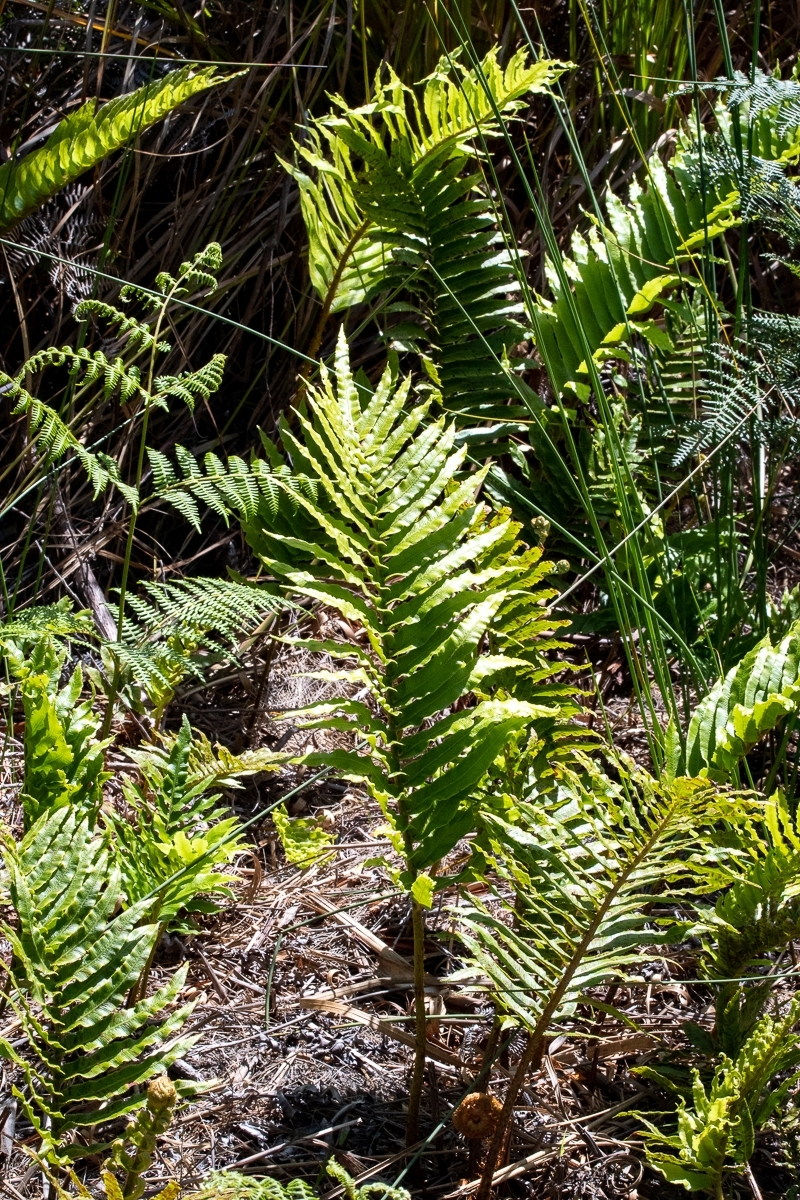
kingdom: Plantae
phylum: Tracheophyta
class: Polypodiopsida
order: Polypodiales
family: Blechnaceae
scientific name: Blechnaceae
